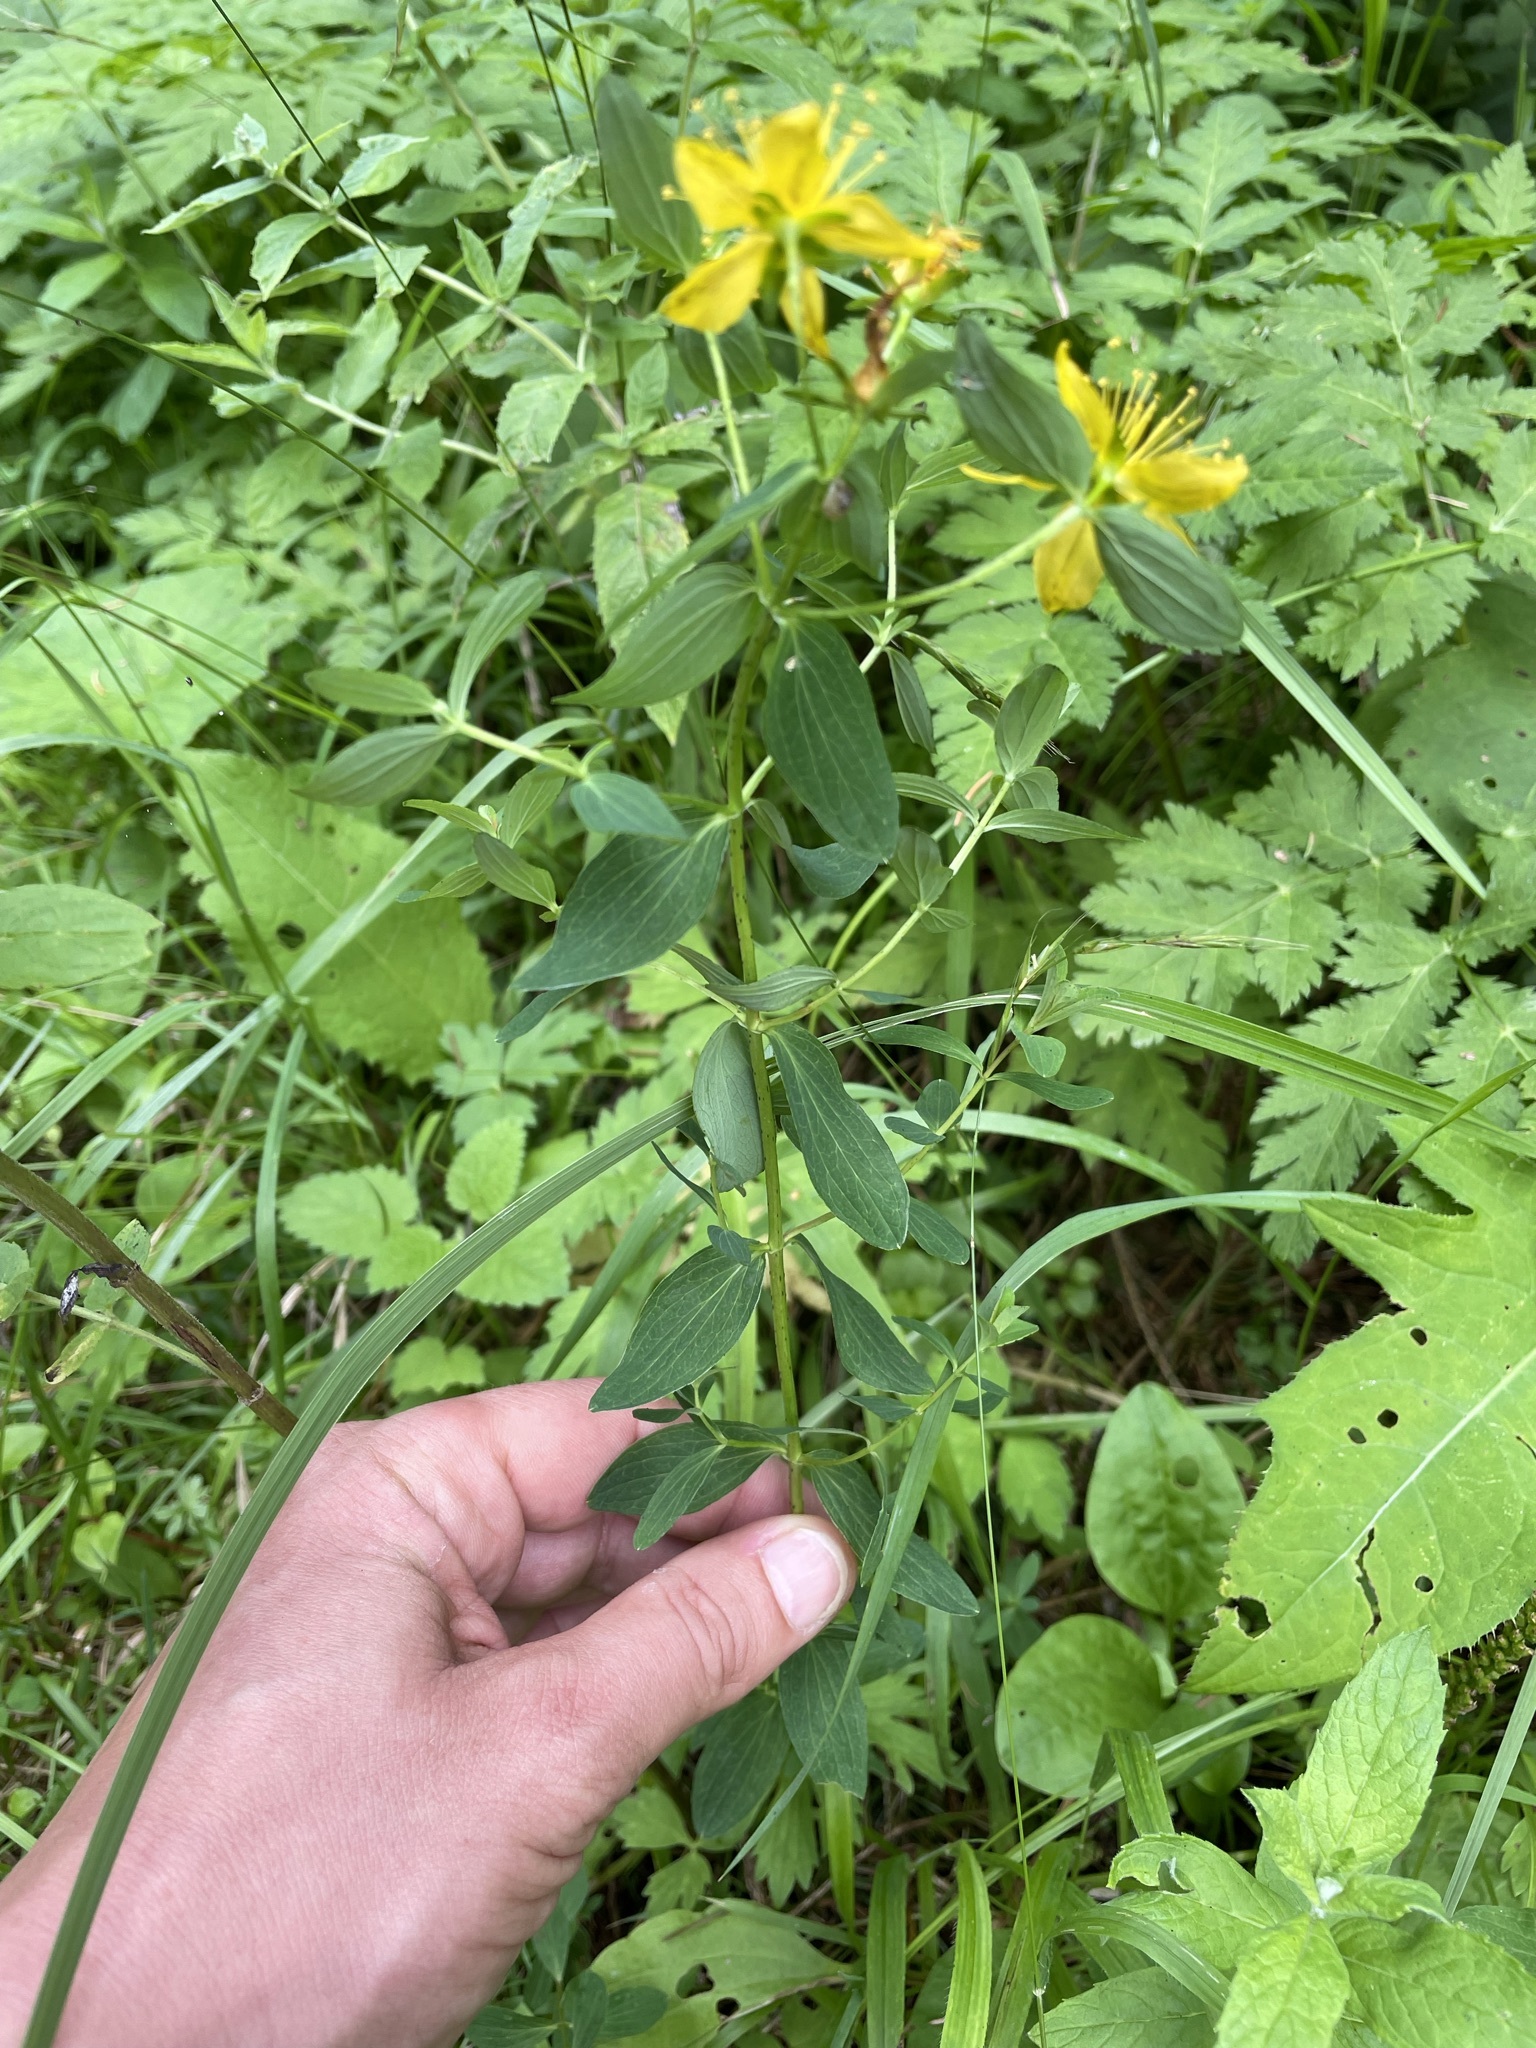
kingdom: Plantae
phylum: Tracheophyta
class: Magnoliopsida
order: Malpighiales
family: Hypericaceae
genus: Hypericum
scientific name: Hypericum desetangsii
